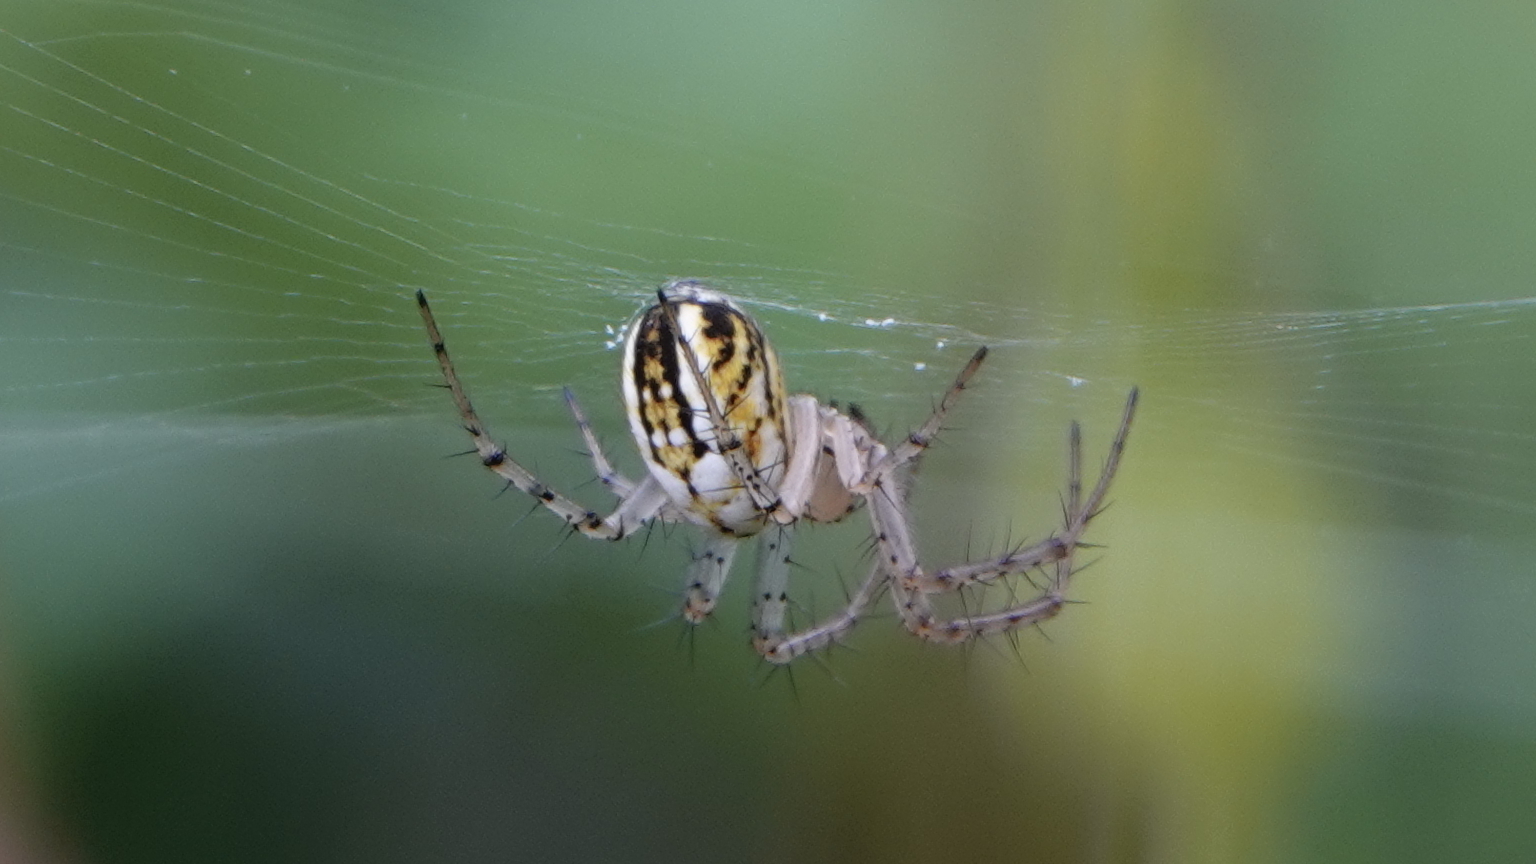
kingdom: Animalia
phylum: Arthropoda
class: Arachnida
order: Araneae
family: Araneidae
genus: Mangora
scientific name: Mangora acalypha
